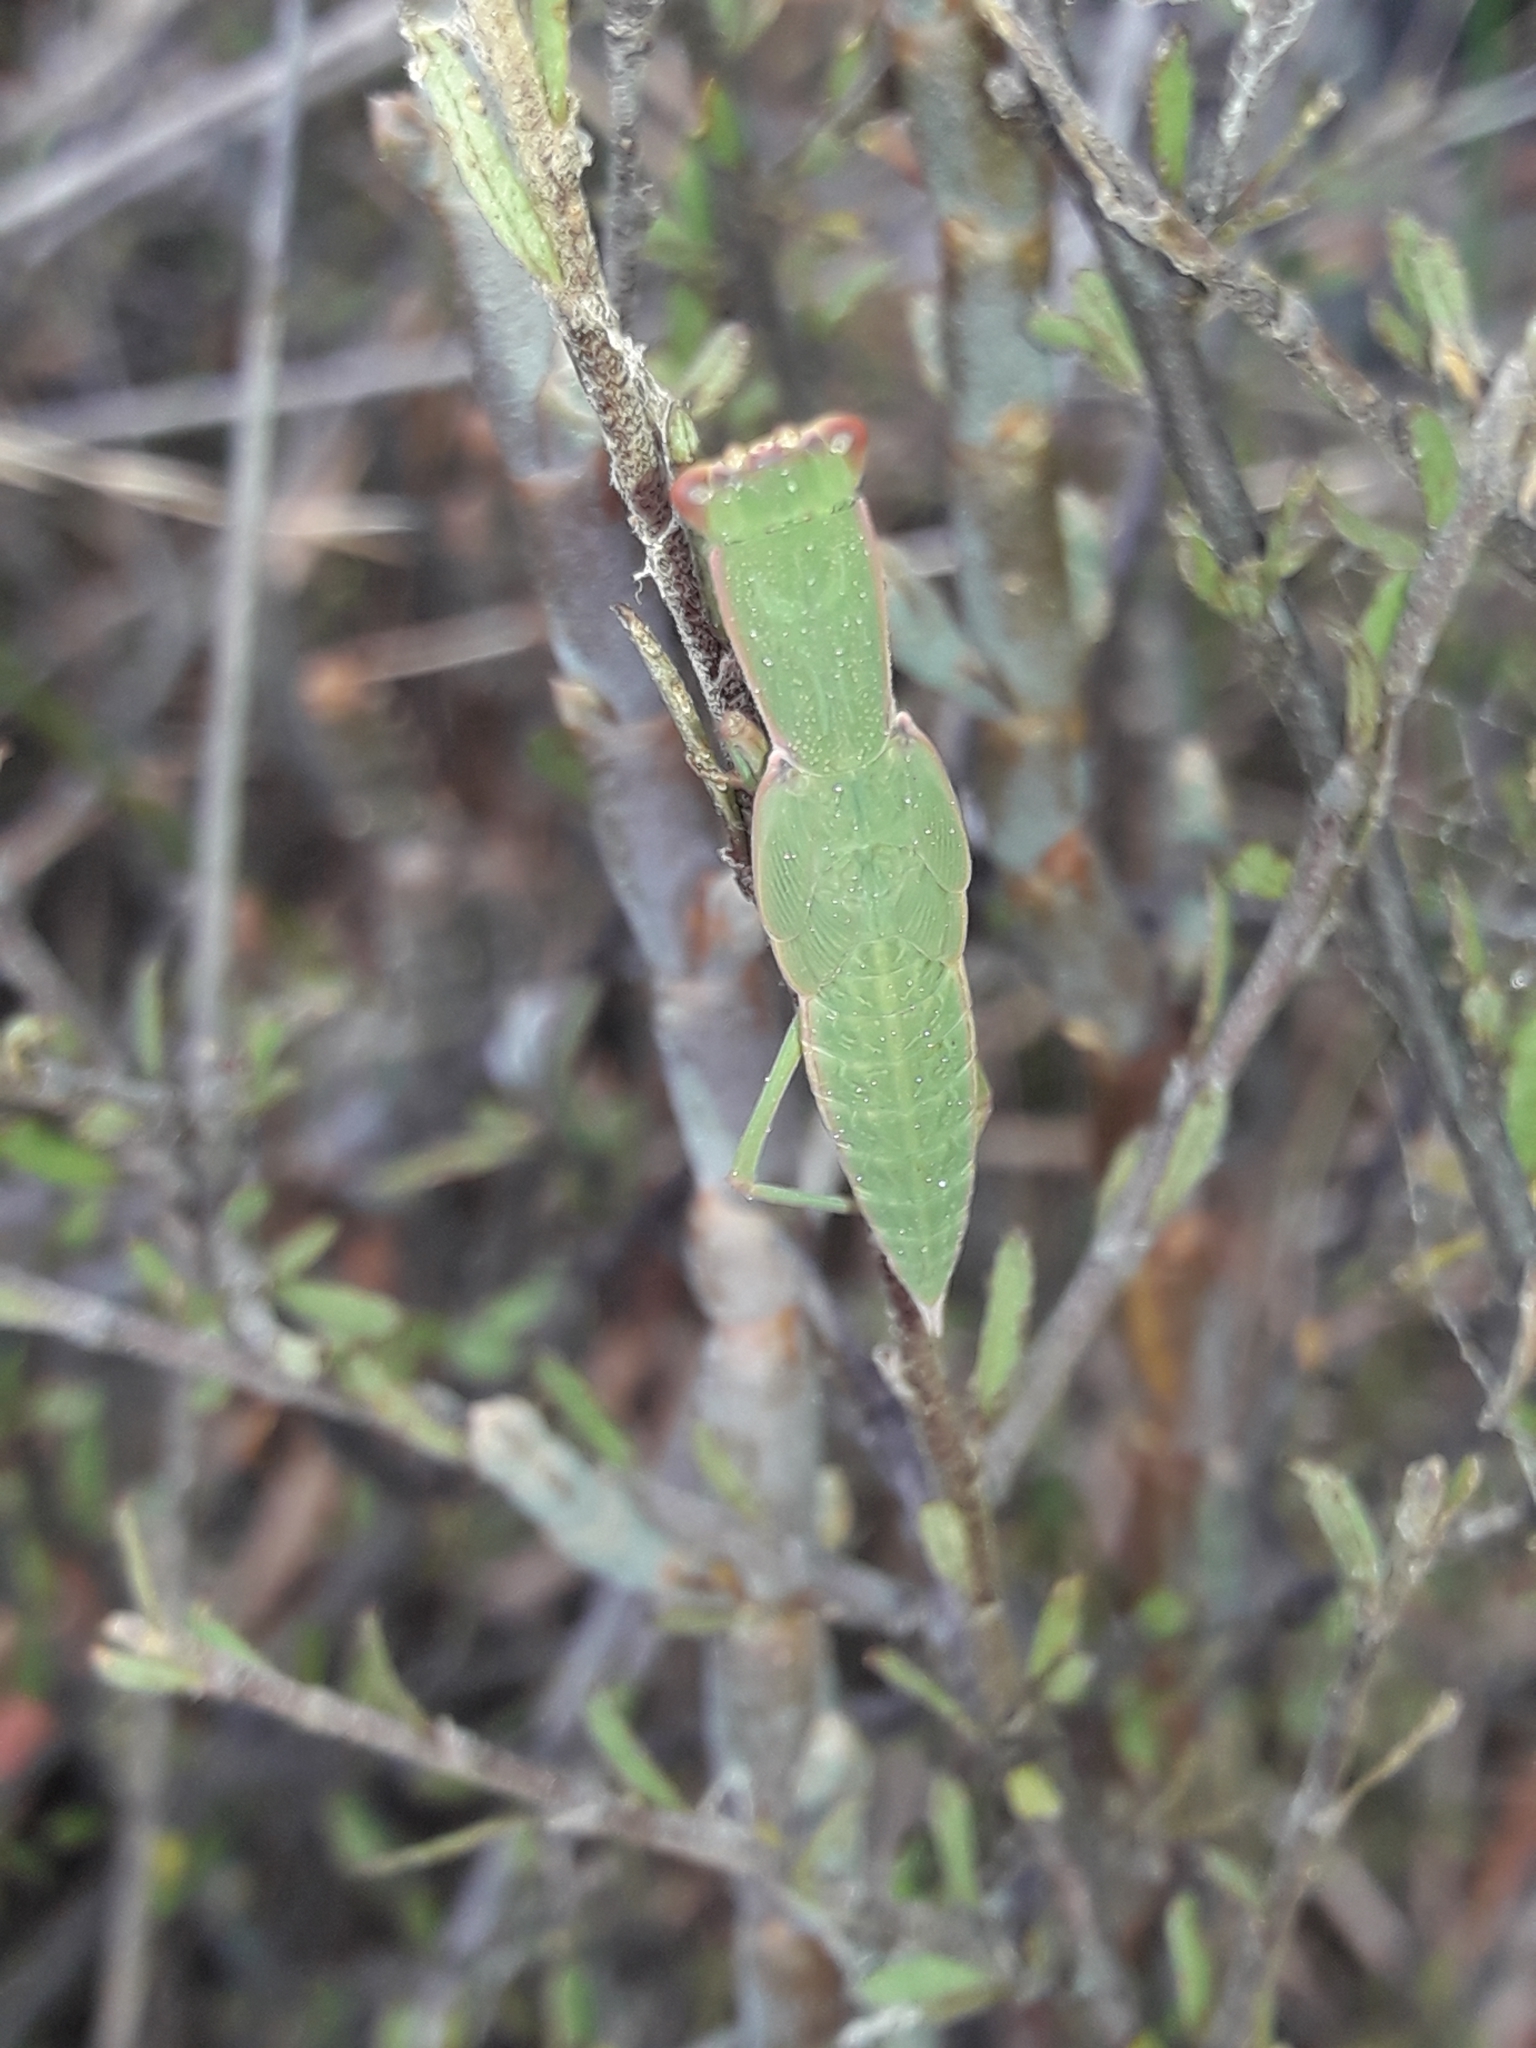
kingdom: Animalia
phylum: Arthropoda
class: Insecta
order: Mantodea
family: Mantidae
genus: Orthodera
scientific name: Orthodera novaezealandiae
